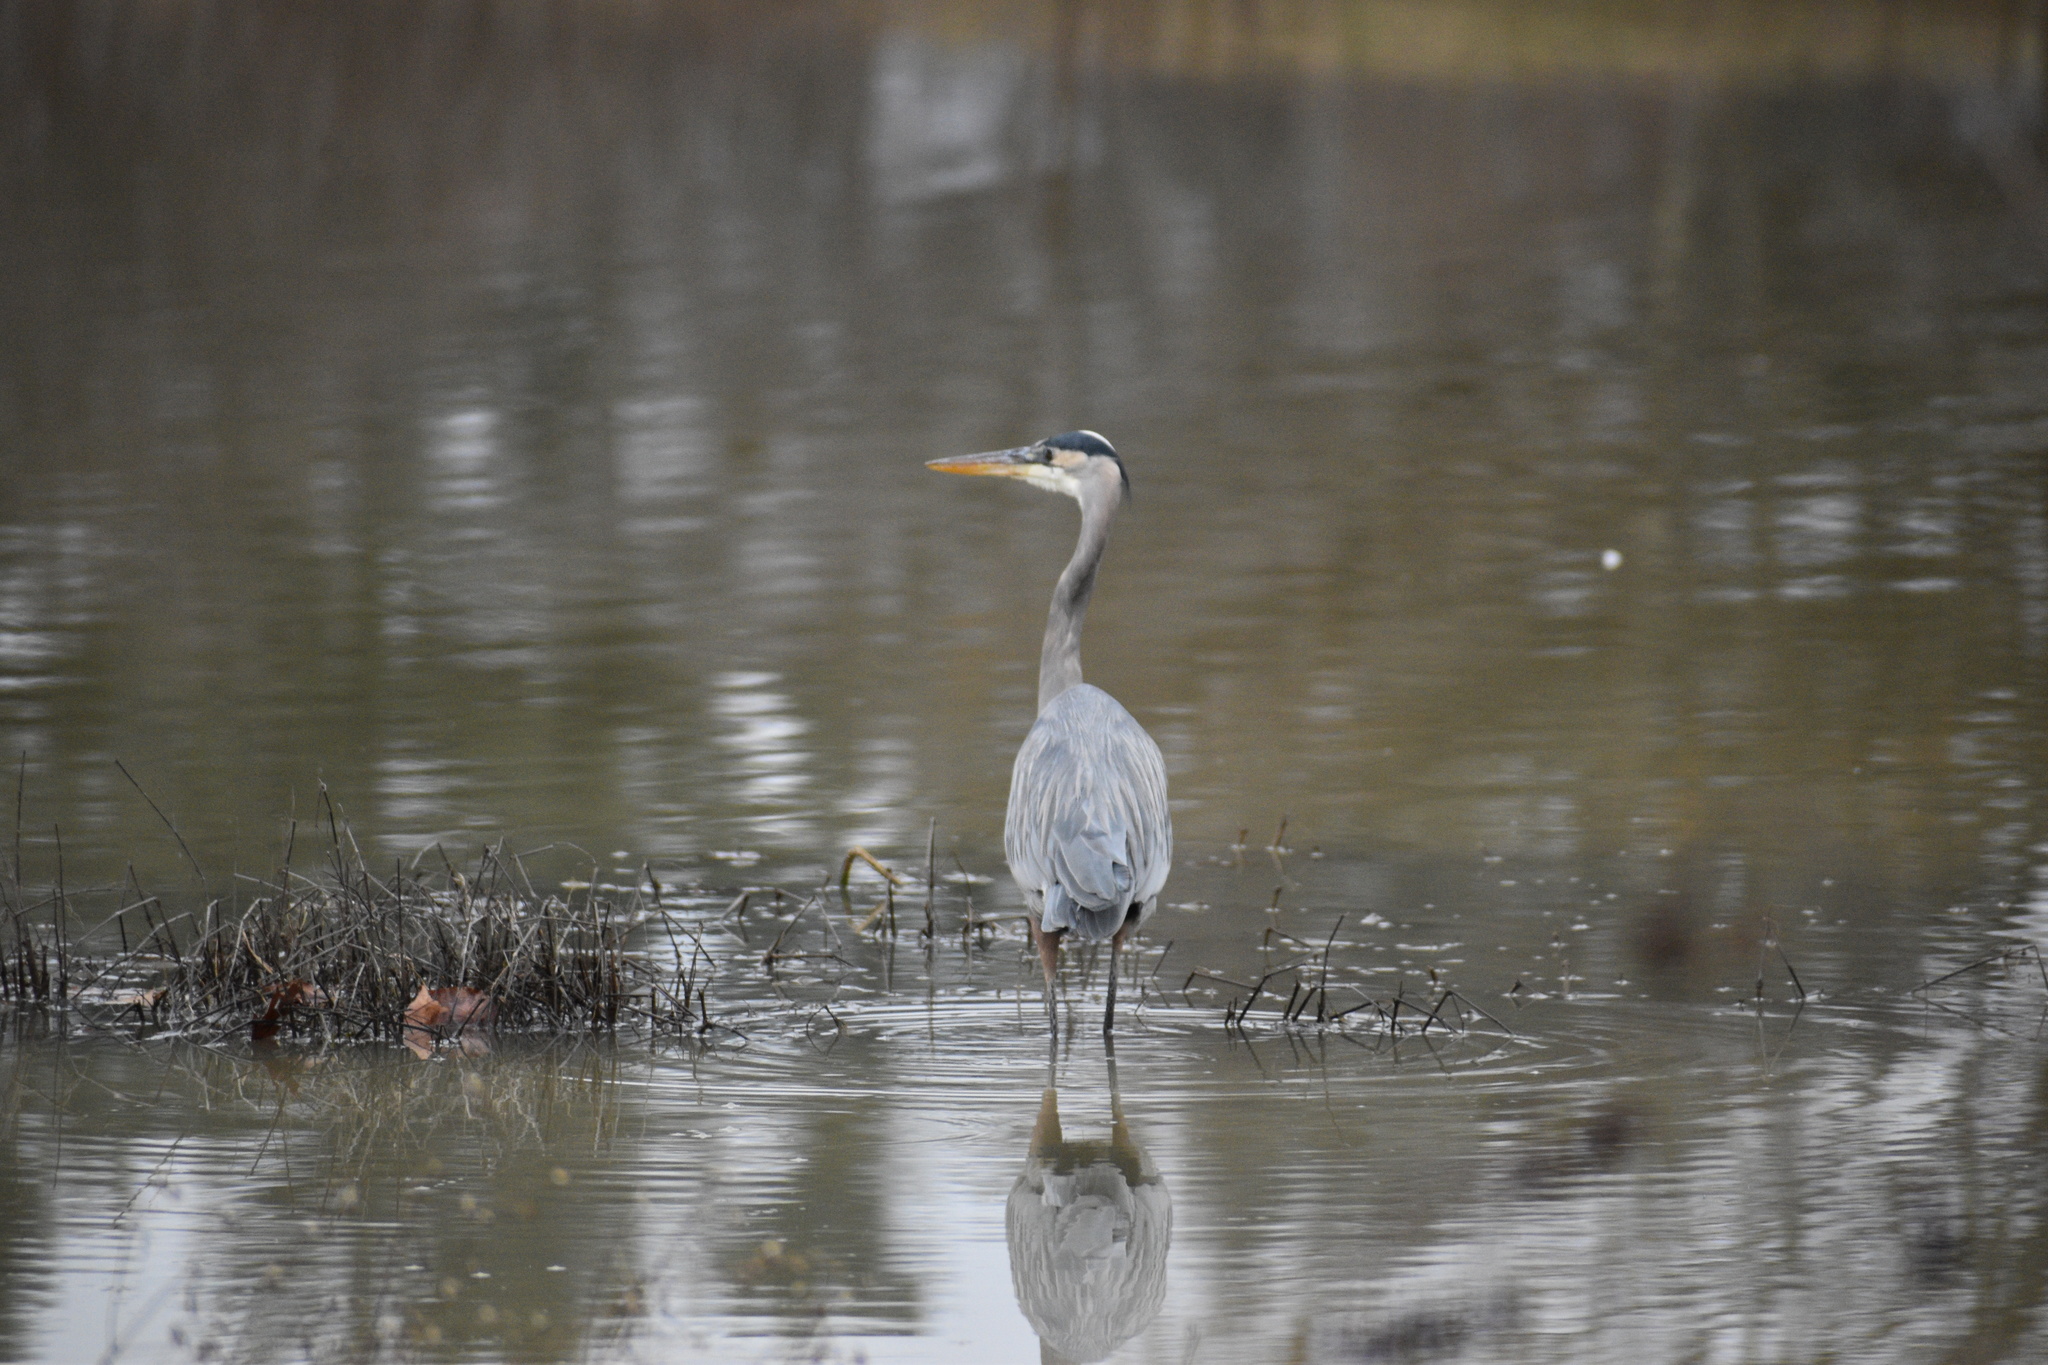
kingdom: Animalia
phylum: Chordata
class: Aves
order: Pelecaniformes
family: Ardeidae
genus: Ardea
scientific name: Ardea herodias
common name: Great blue heron
